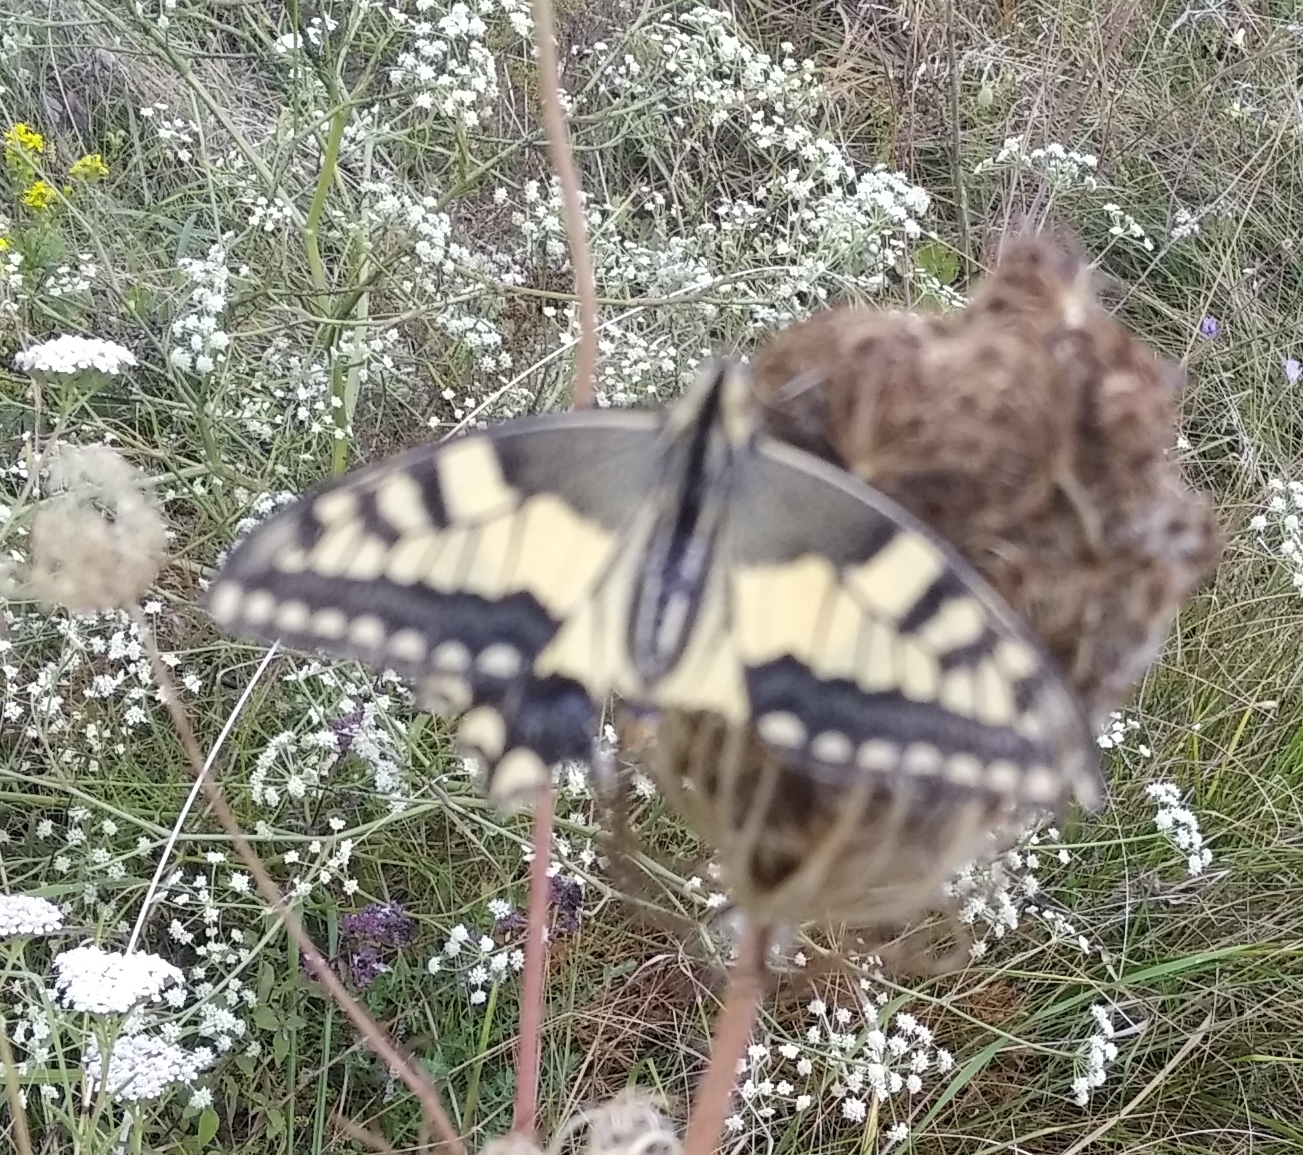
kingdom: Animalia
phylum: Arthropoda
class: Insecta
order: Lepidoptera
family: Papilionidae
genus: Papilio
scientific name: Papilio machaon
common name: Swallowtail
